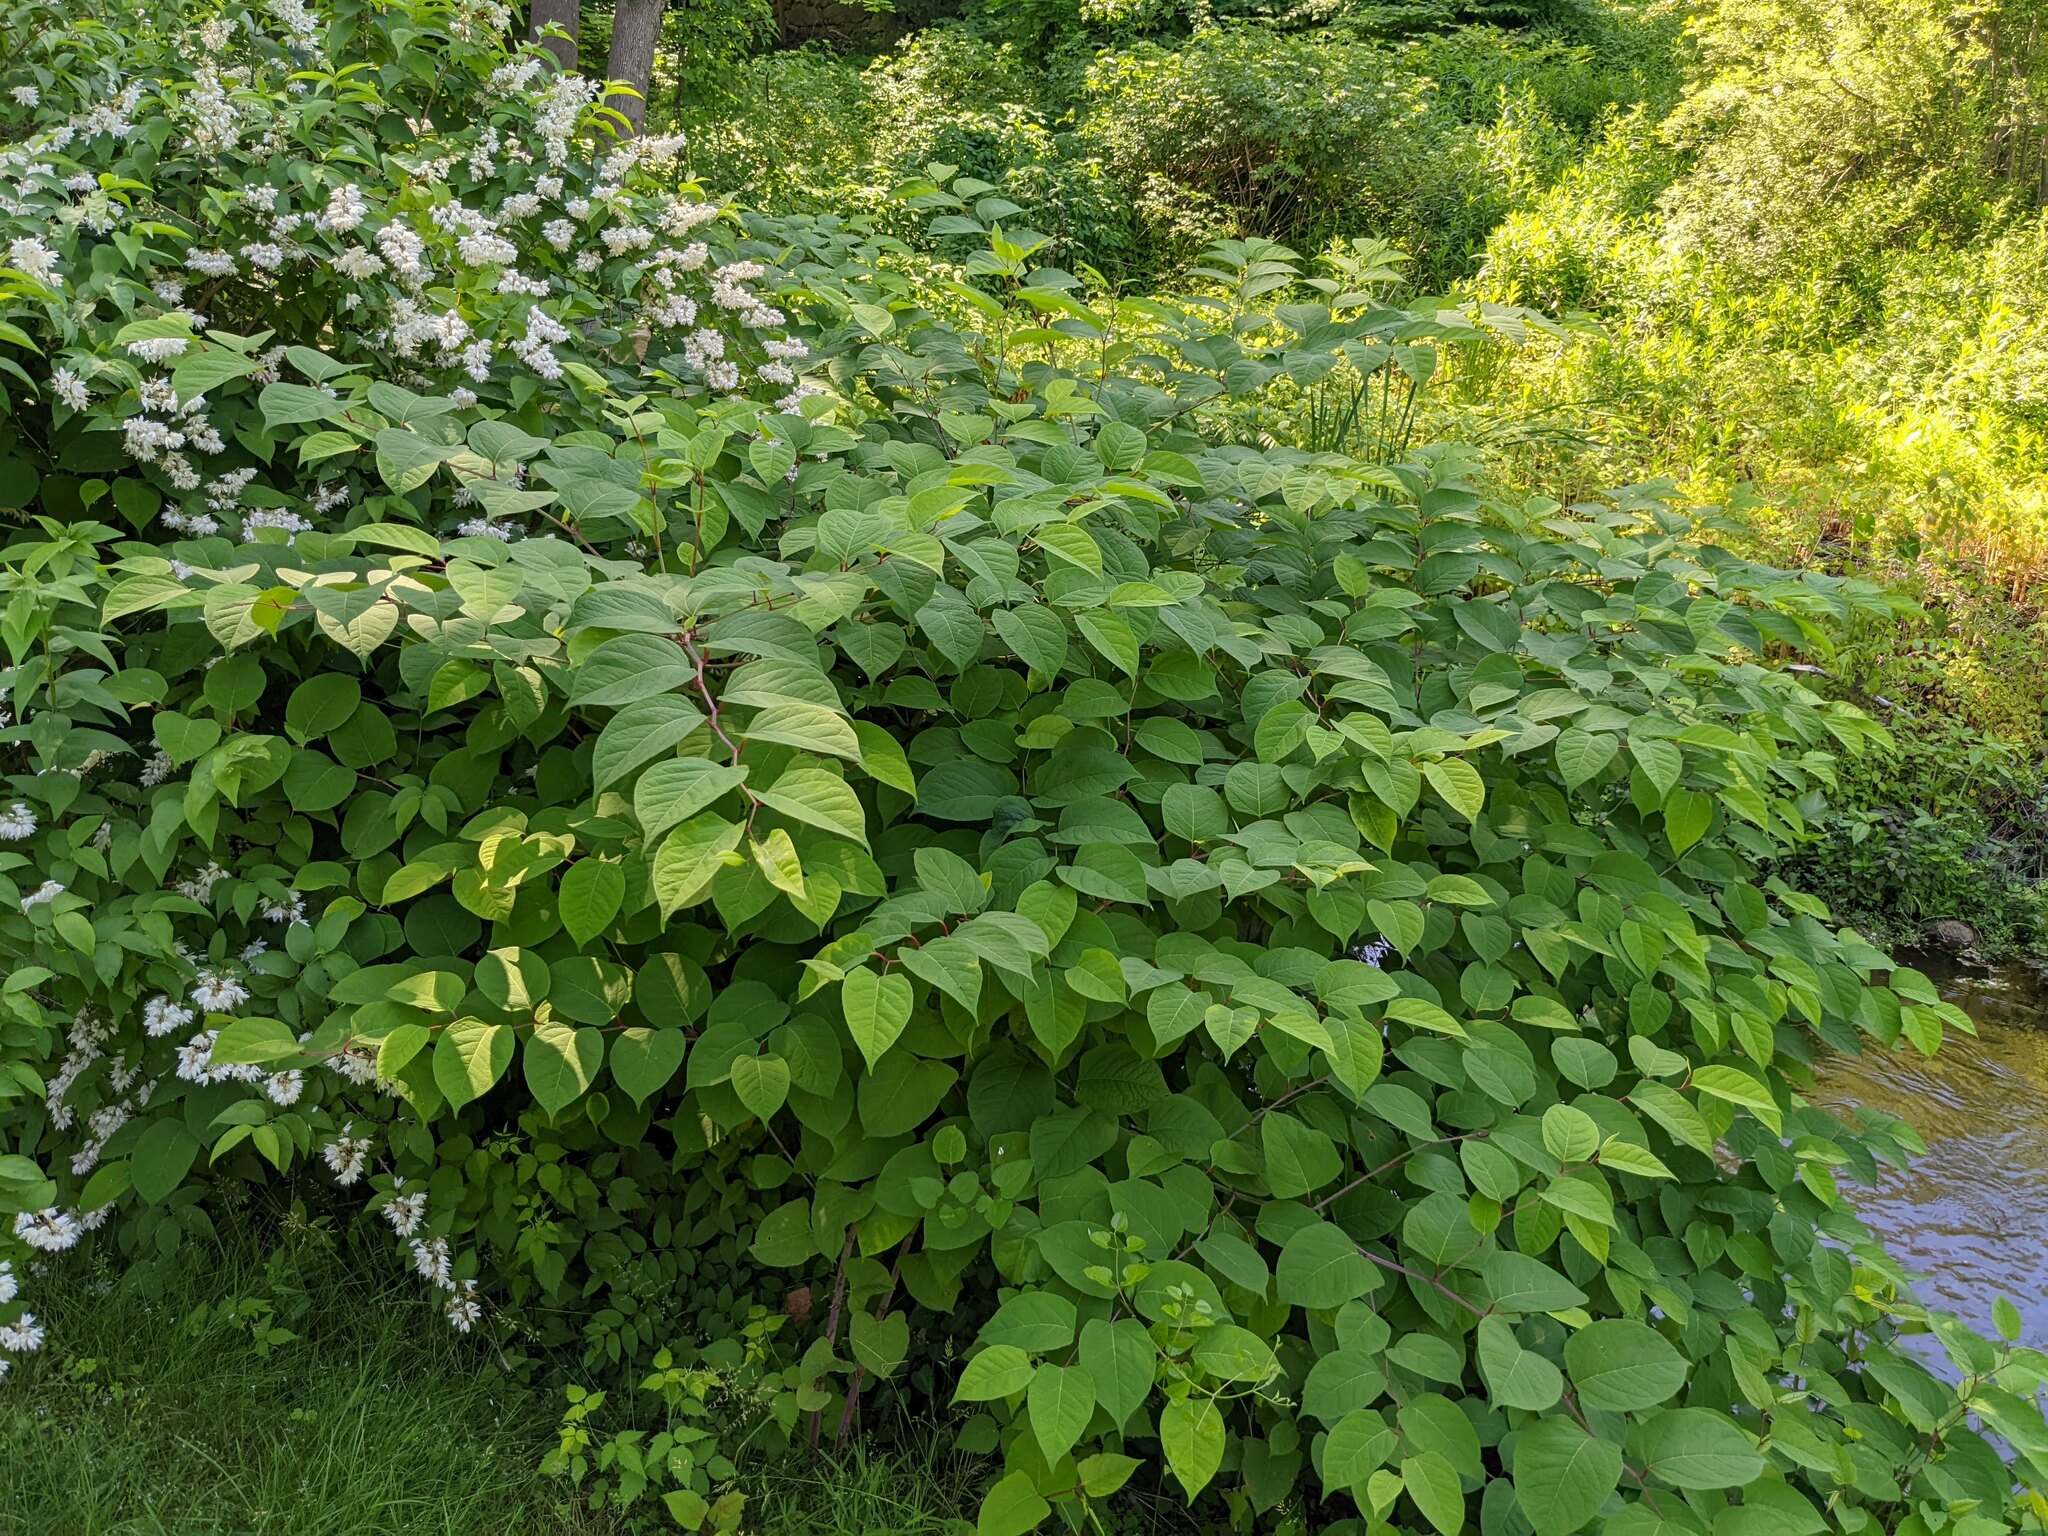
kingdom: Plantae
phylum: Tracheophyta
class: Magnoliopsida
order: Caryophyllales
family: Polygonaceae
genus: Reynoutria
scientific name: Reynoutria japonica
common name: Japanese knotweed
